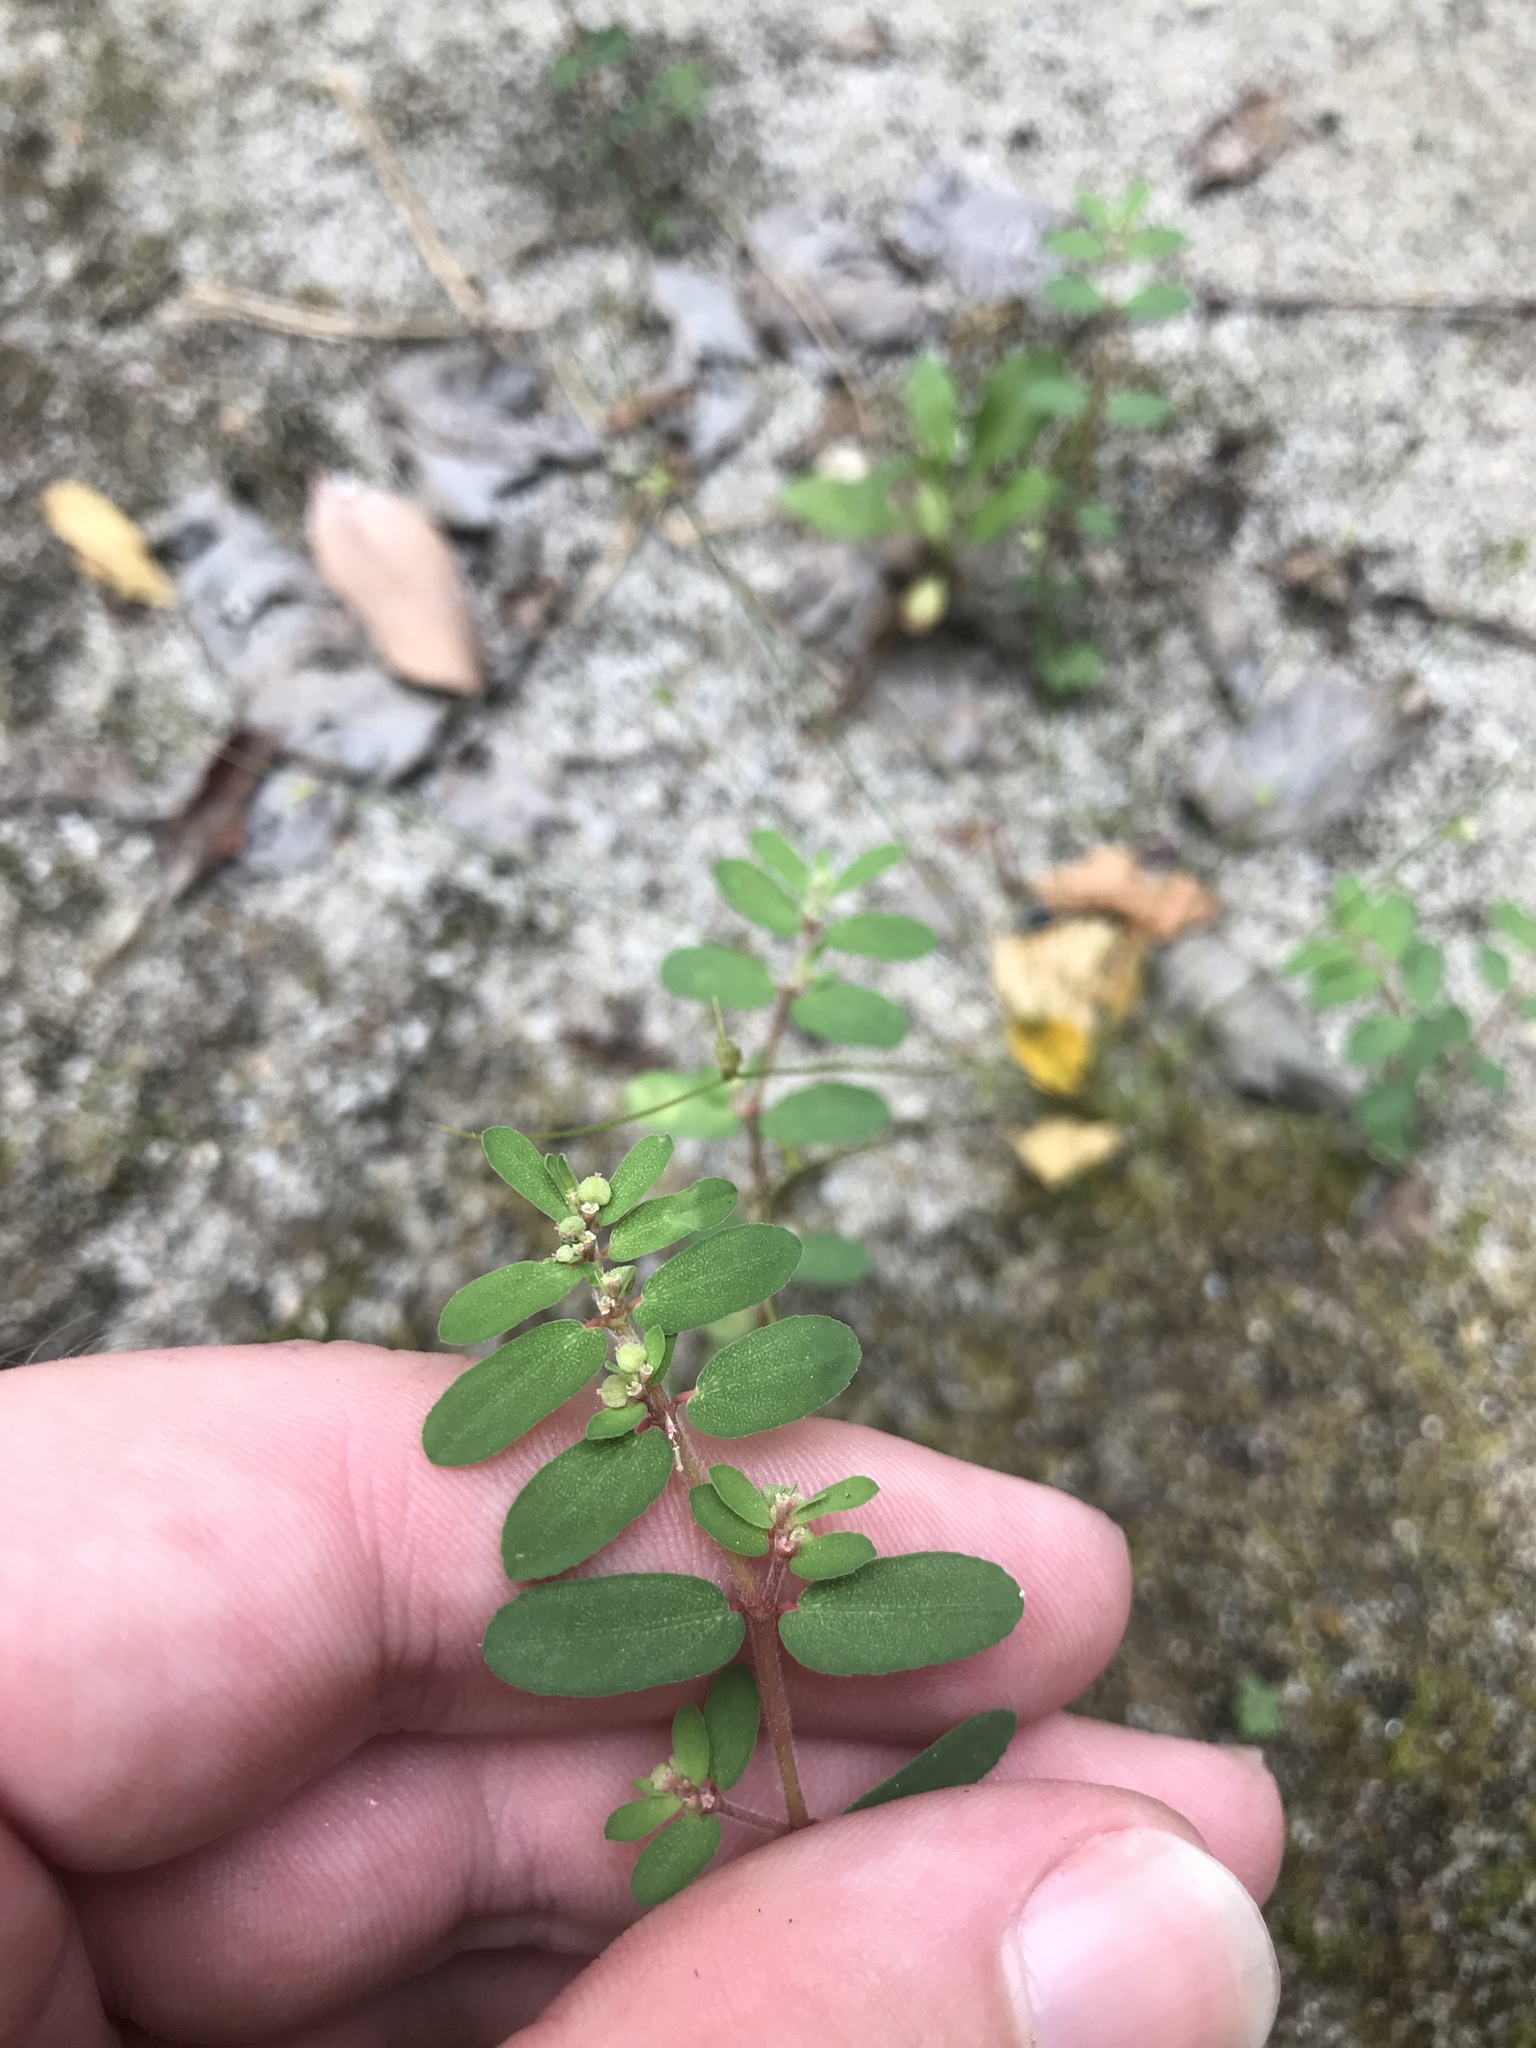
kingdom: Plantae
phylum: Tracheophyta
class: Magnoliopsida
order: Malpighiales
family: Euphorbiaceae
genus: Euphorbia
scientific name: Euphorbia maculata
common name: Spotted spurge
